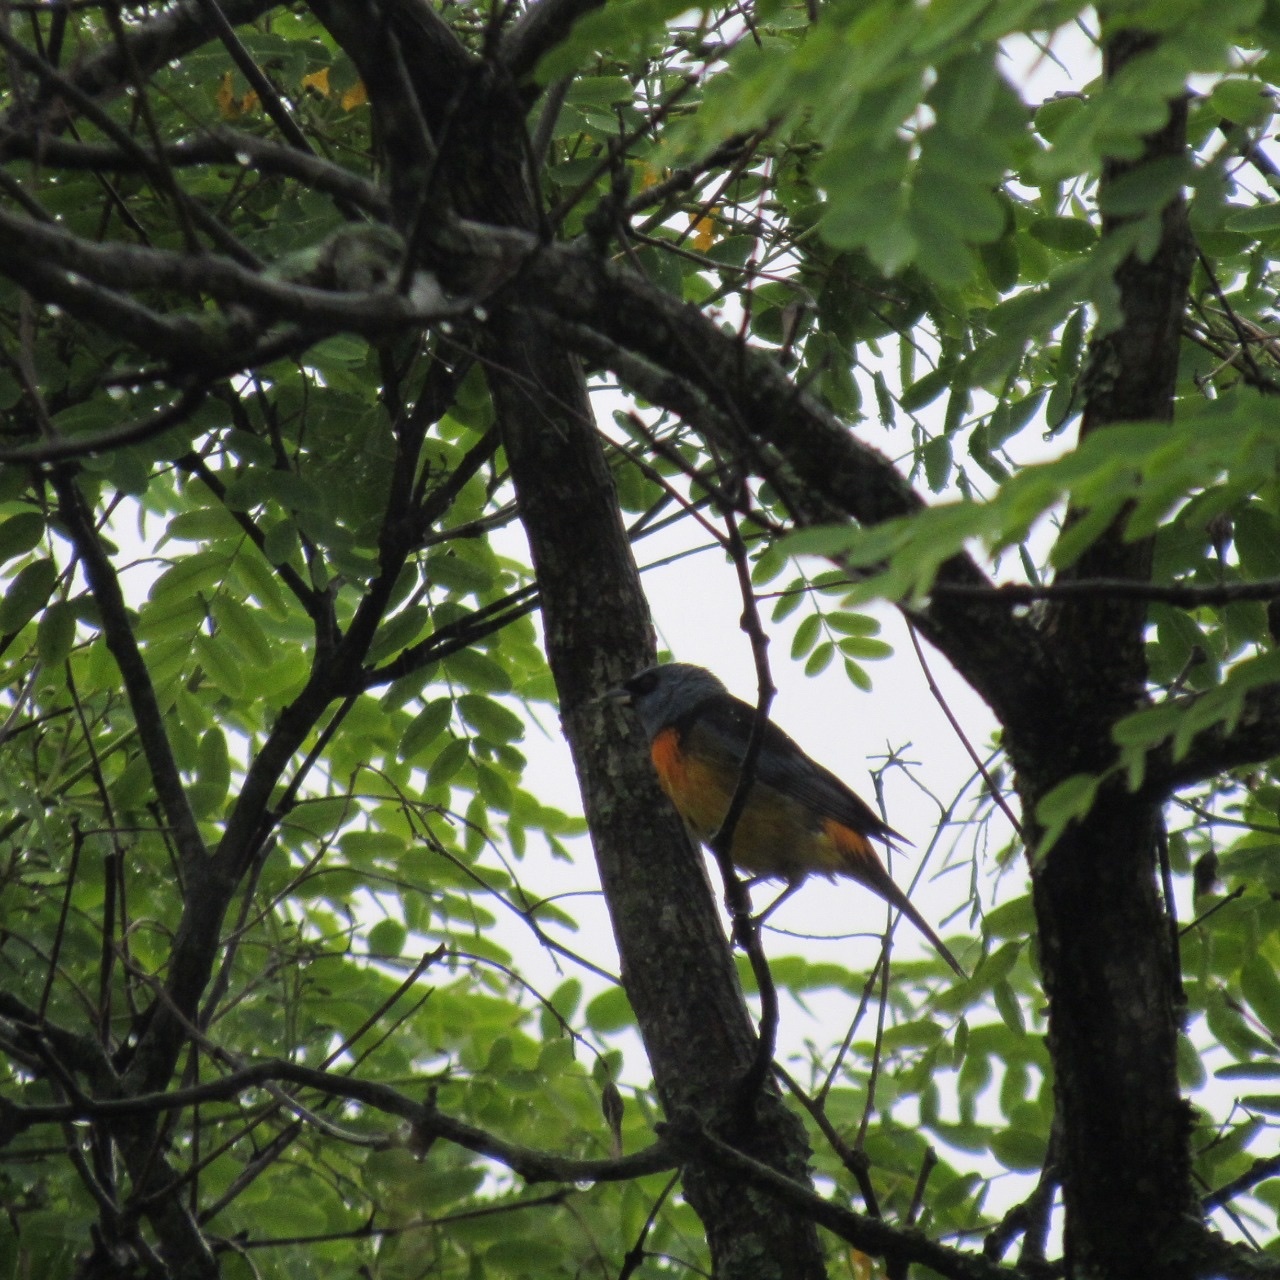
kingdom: Animalia
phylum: Chordata
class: Aves
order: Passeriformes
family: Thraupidae
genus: Rauenia
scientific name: Rauenia bonariensis
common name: Blue-and-yellow tanager
